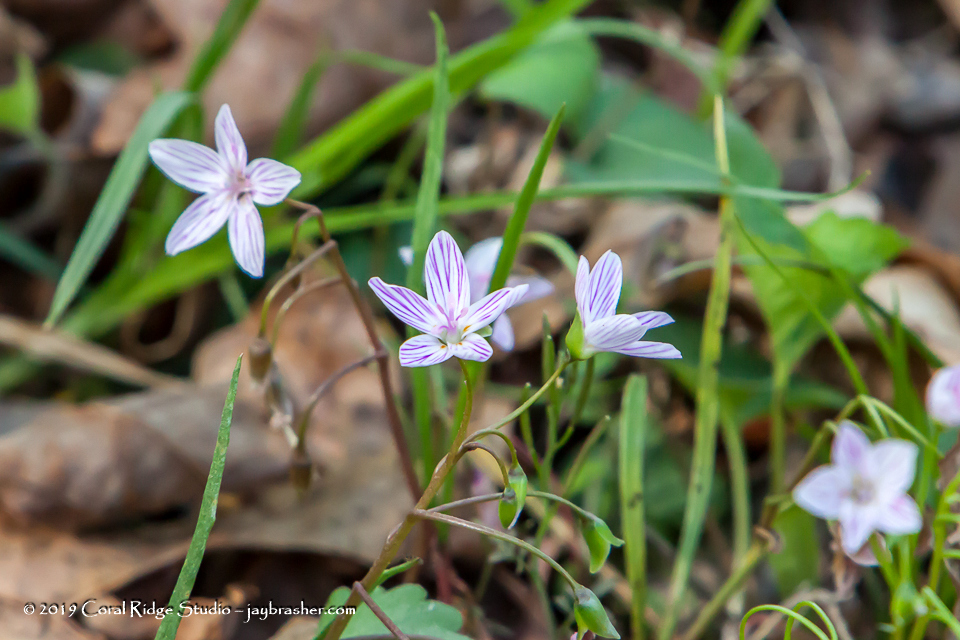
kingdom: Plantae
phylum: Tracheophyta
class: Magnoliopsida
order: Caryophyllales
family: Montiaceae
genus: Claytonia
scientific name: Claytonia virginica
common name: Virginia springbeauty
